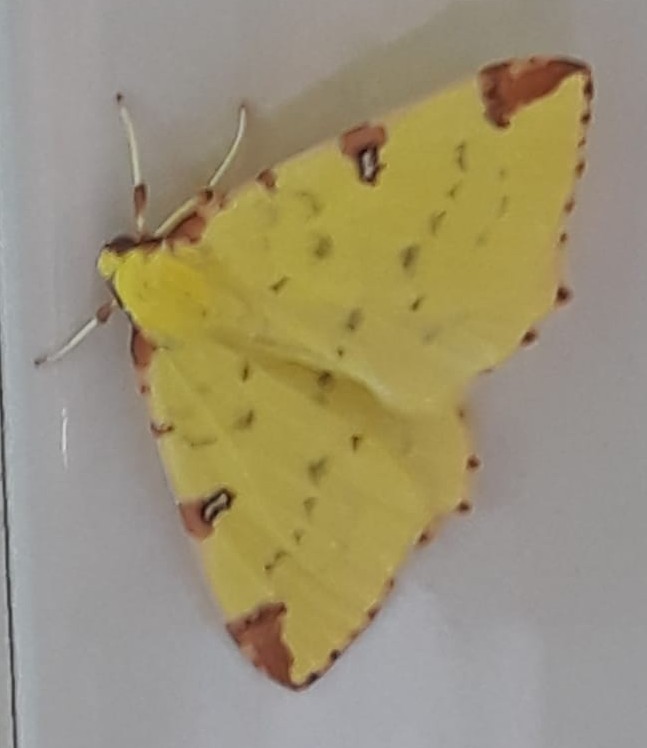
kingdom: Animalia
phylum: Arthropoda
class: Insecta
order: Lepidoptera
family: Geometridae
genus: Opisthograptis
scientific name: Opisthograptis luteolata
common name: Brimstone moth
